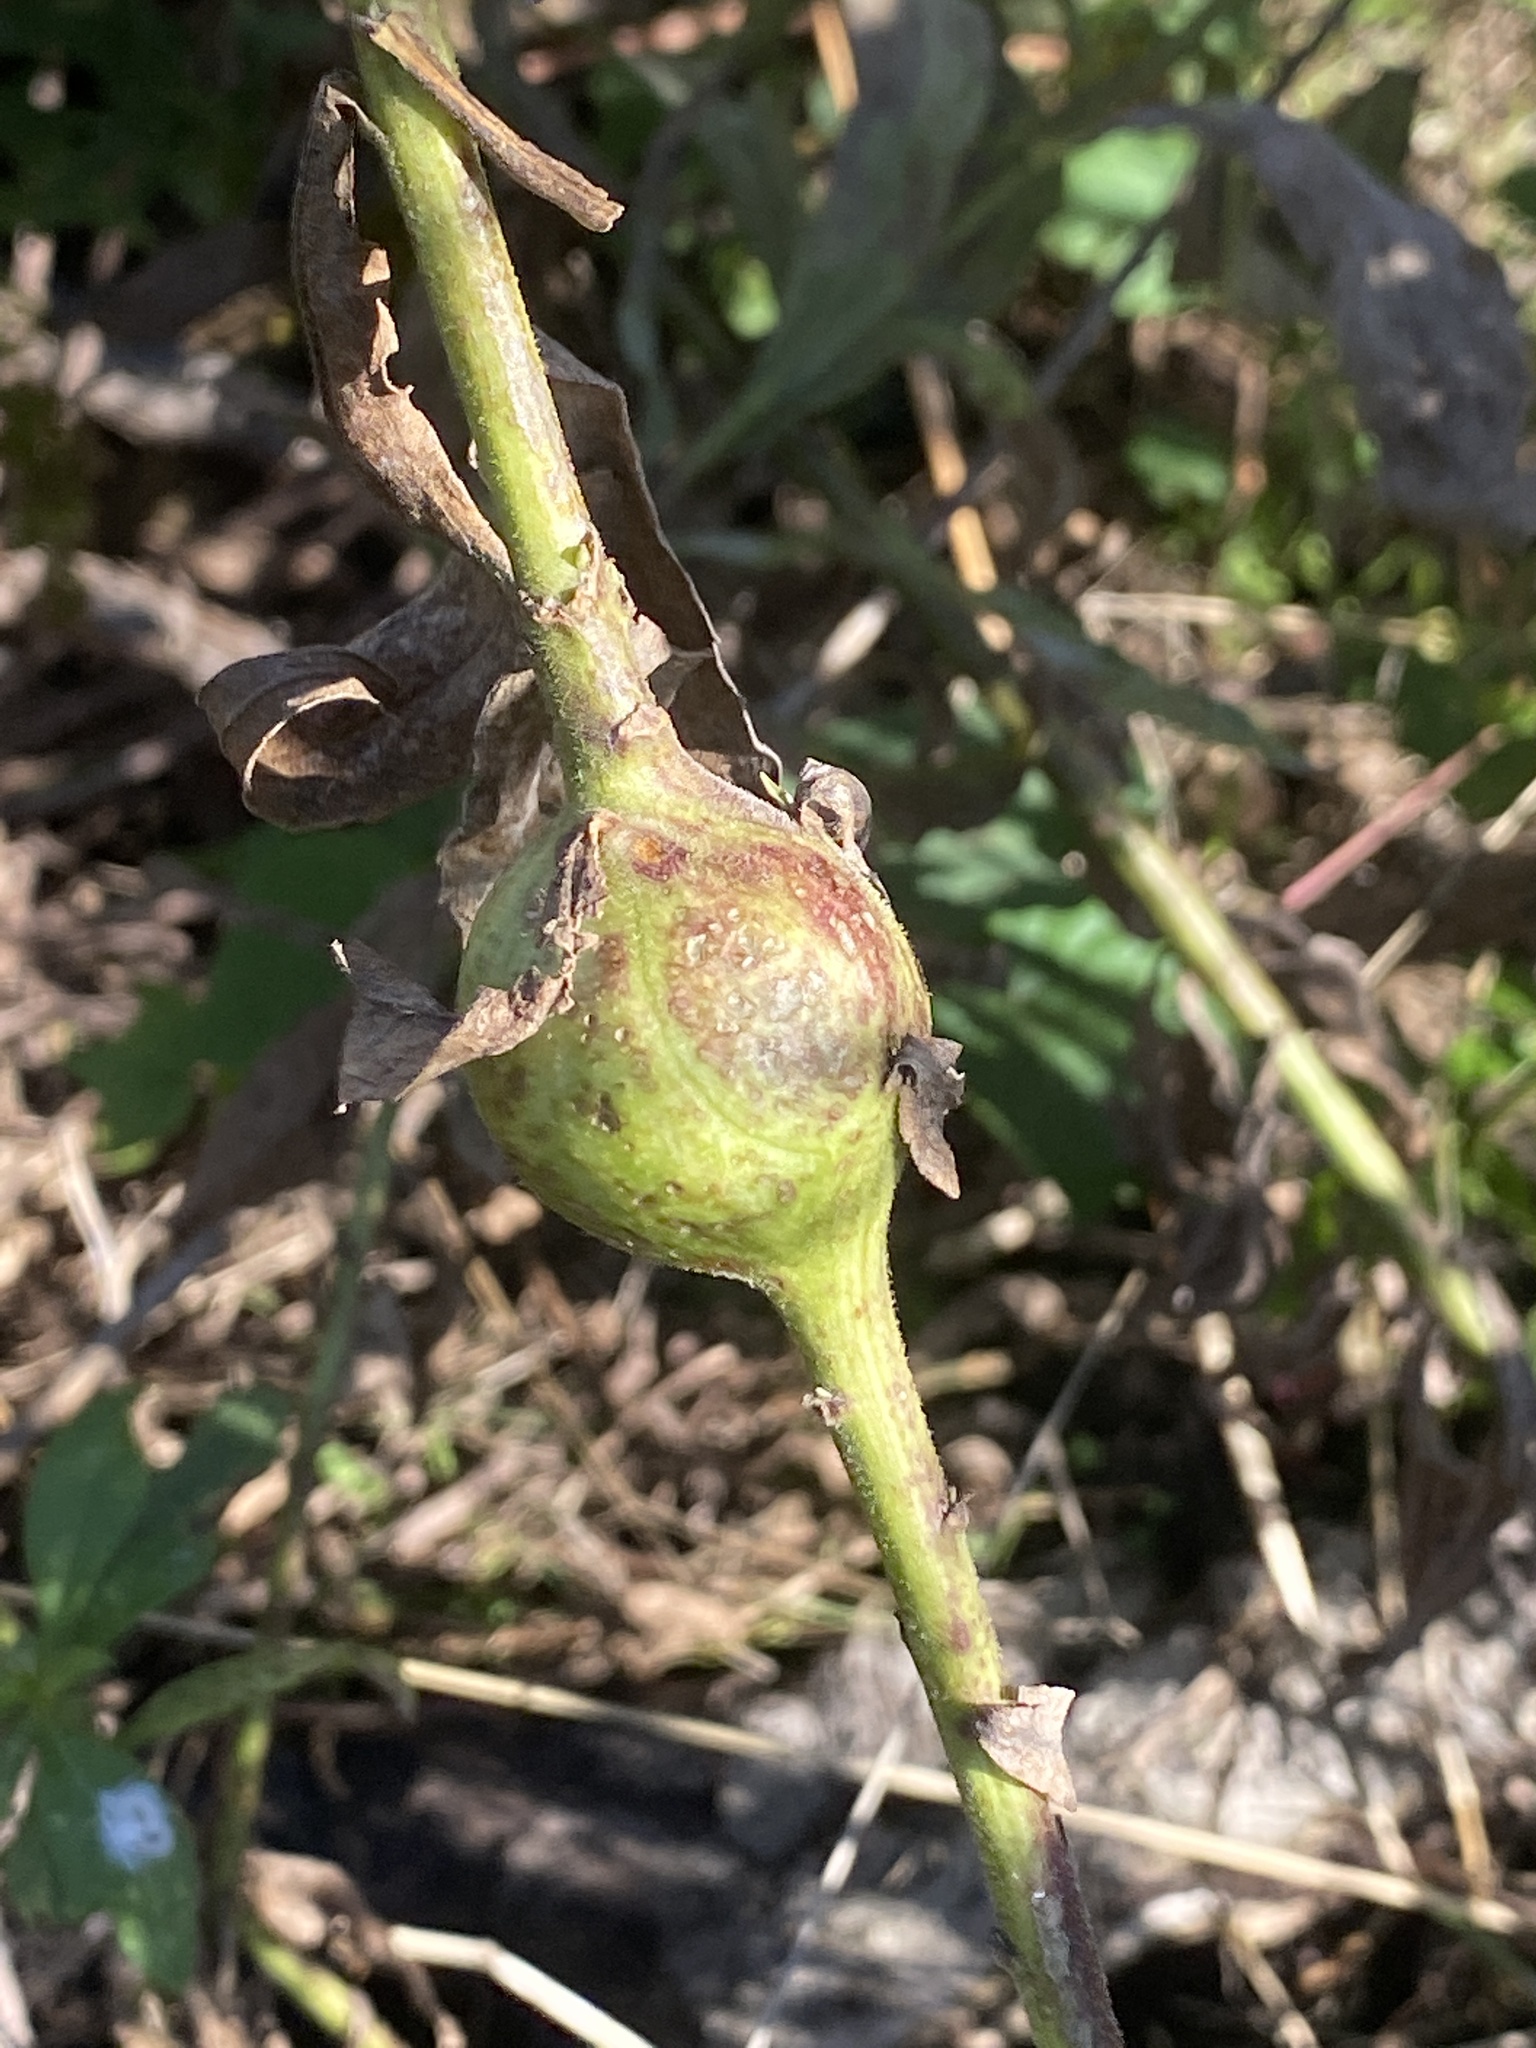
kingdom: Animalia
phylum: Arthropoda
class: Insecta
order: Diptera
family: Tephritidae
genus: Eurosta
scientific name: Eurosta solidaginis
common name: Goldenrod gall fly
